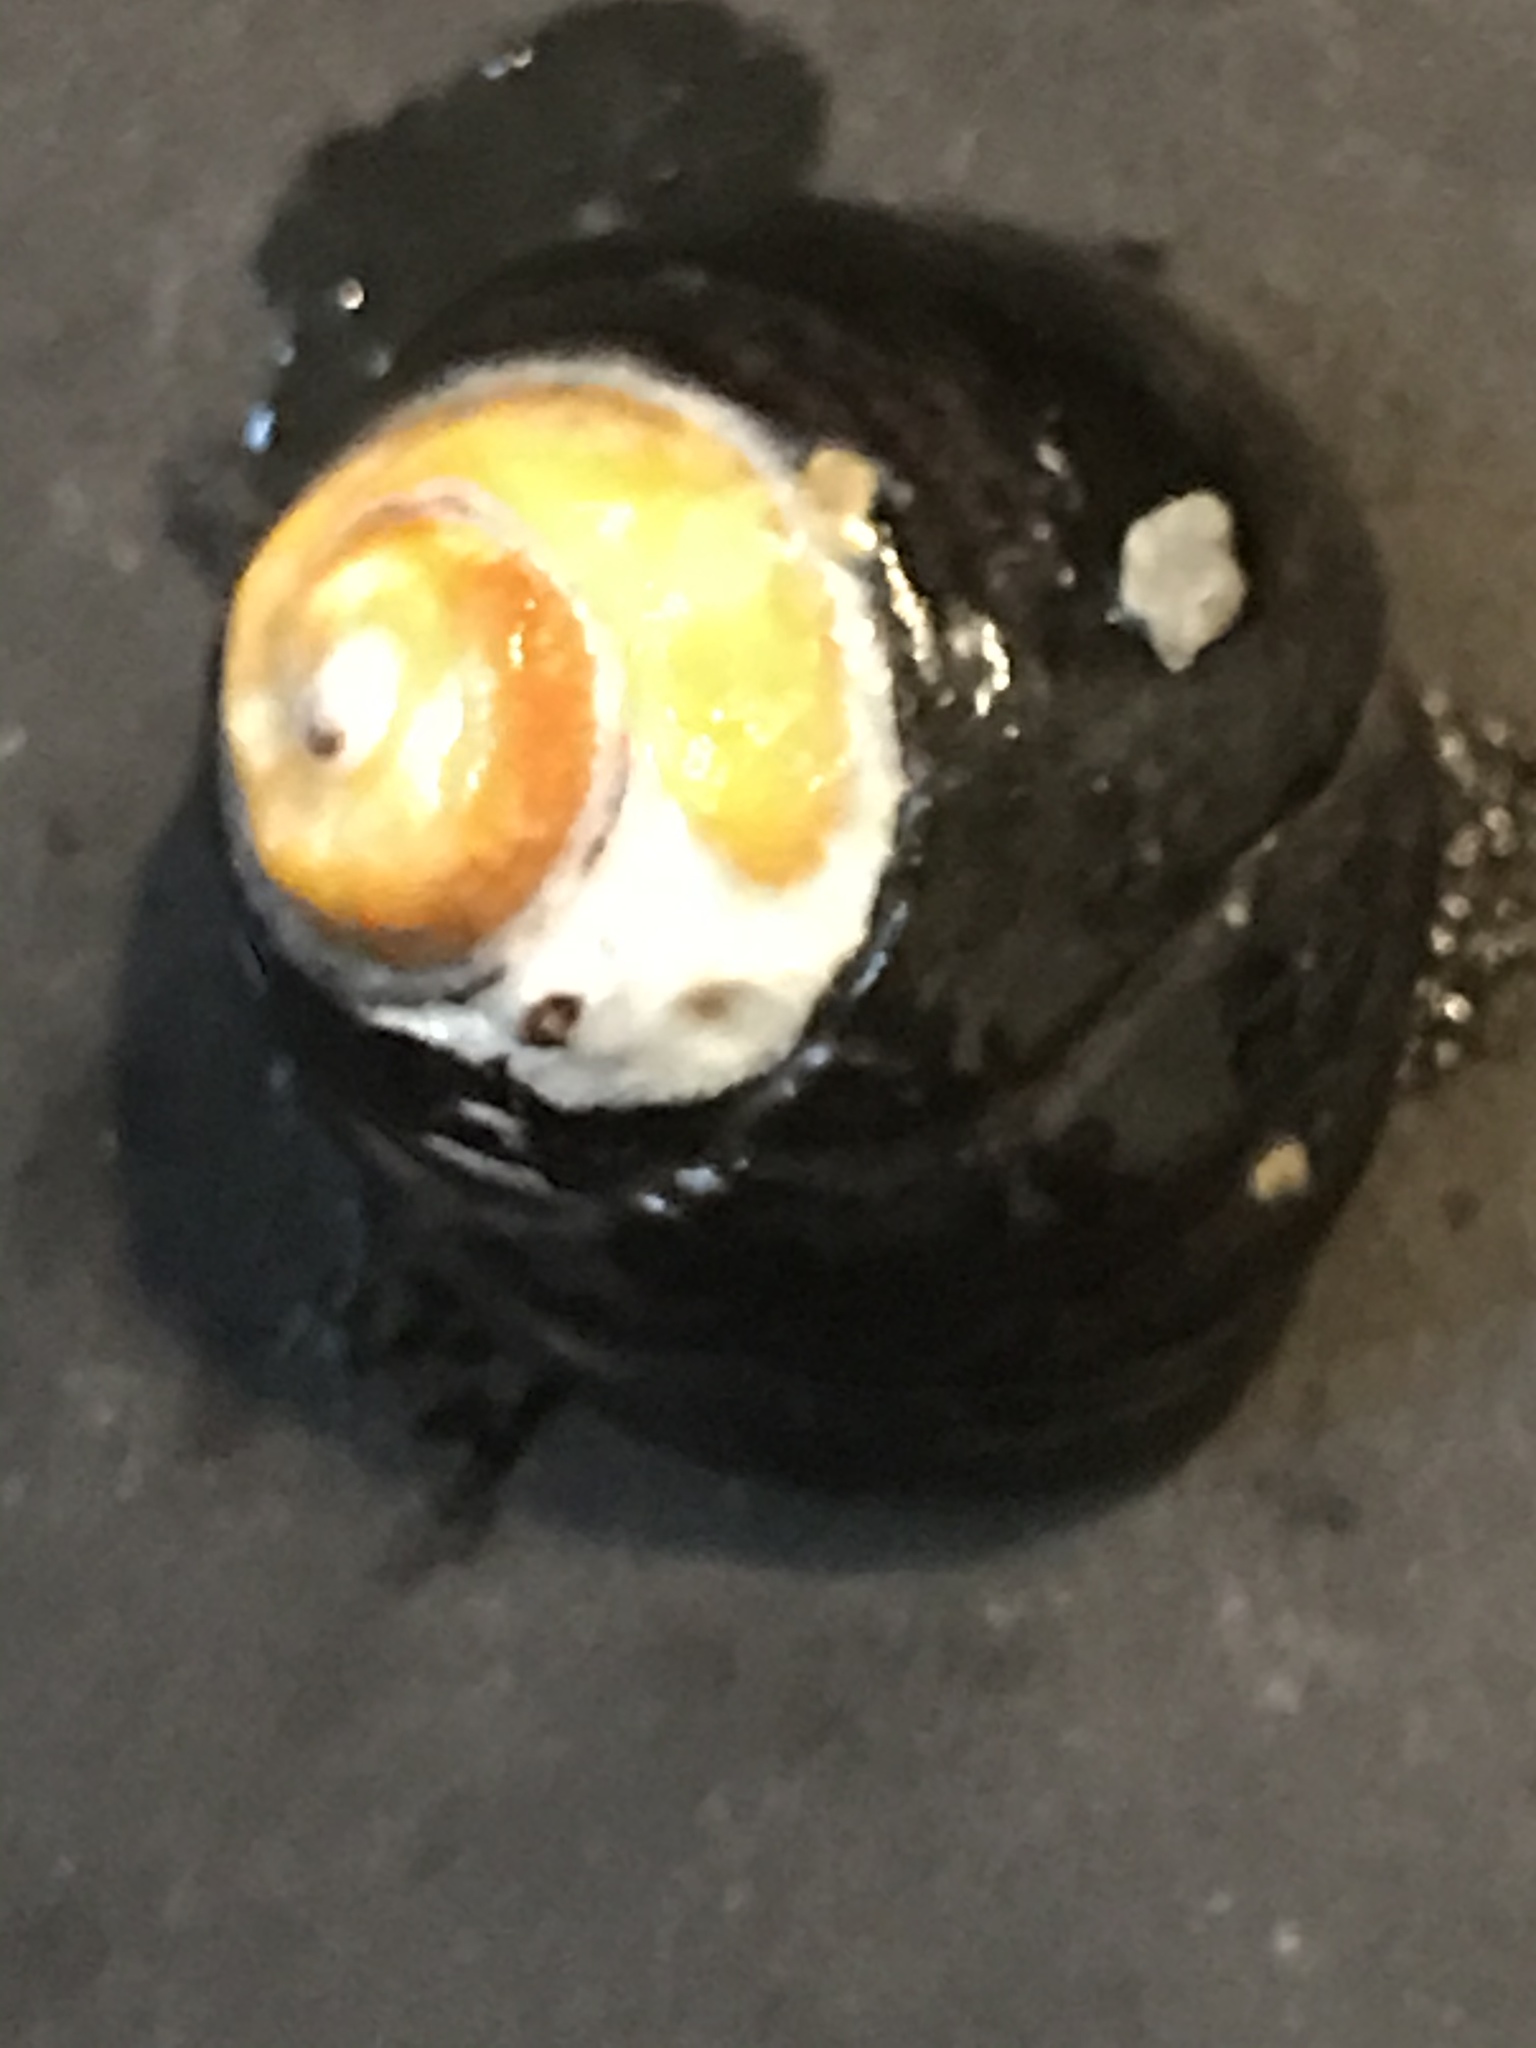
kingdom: Animalia
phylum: Mollusca
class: Gastropoda
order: Trochida
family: Tegulidae
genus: Tegula
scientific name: Tegula funebralis
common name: Black tegula
